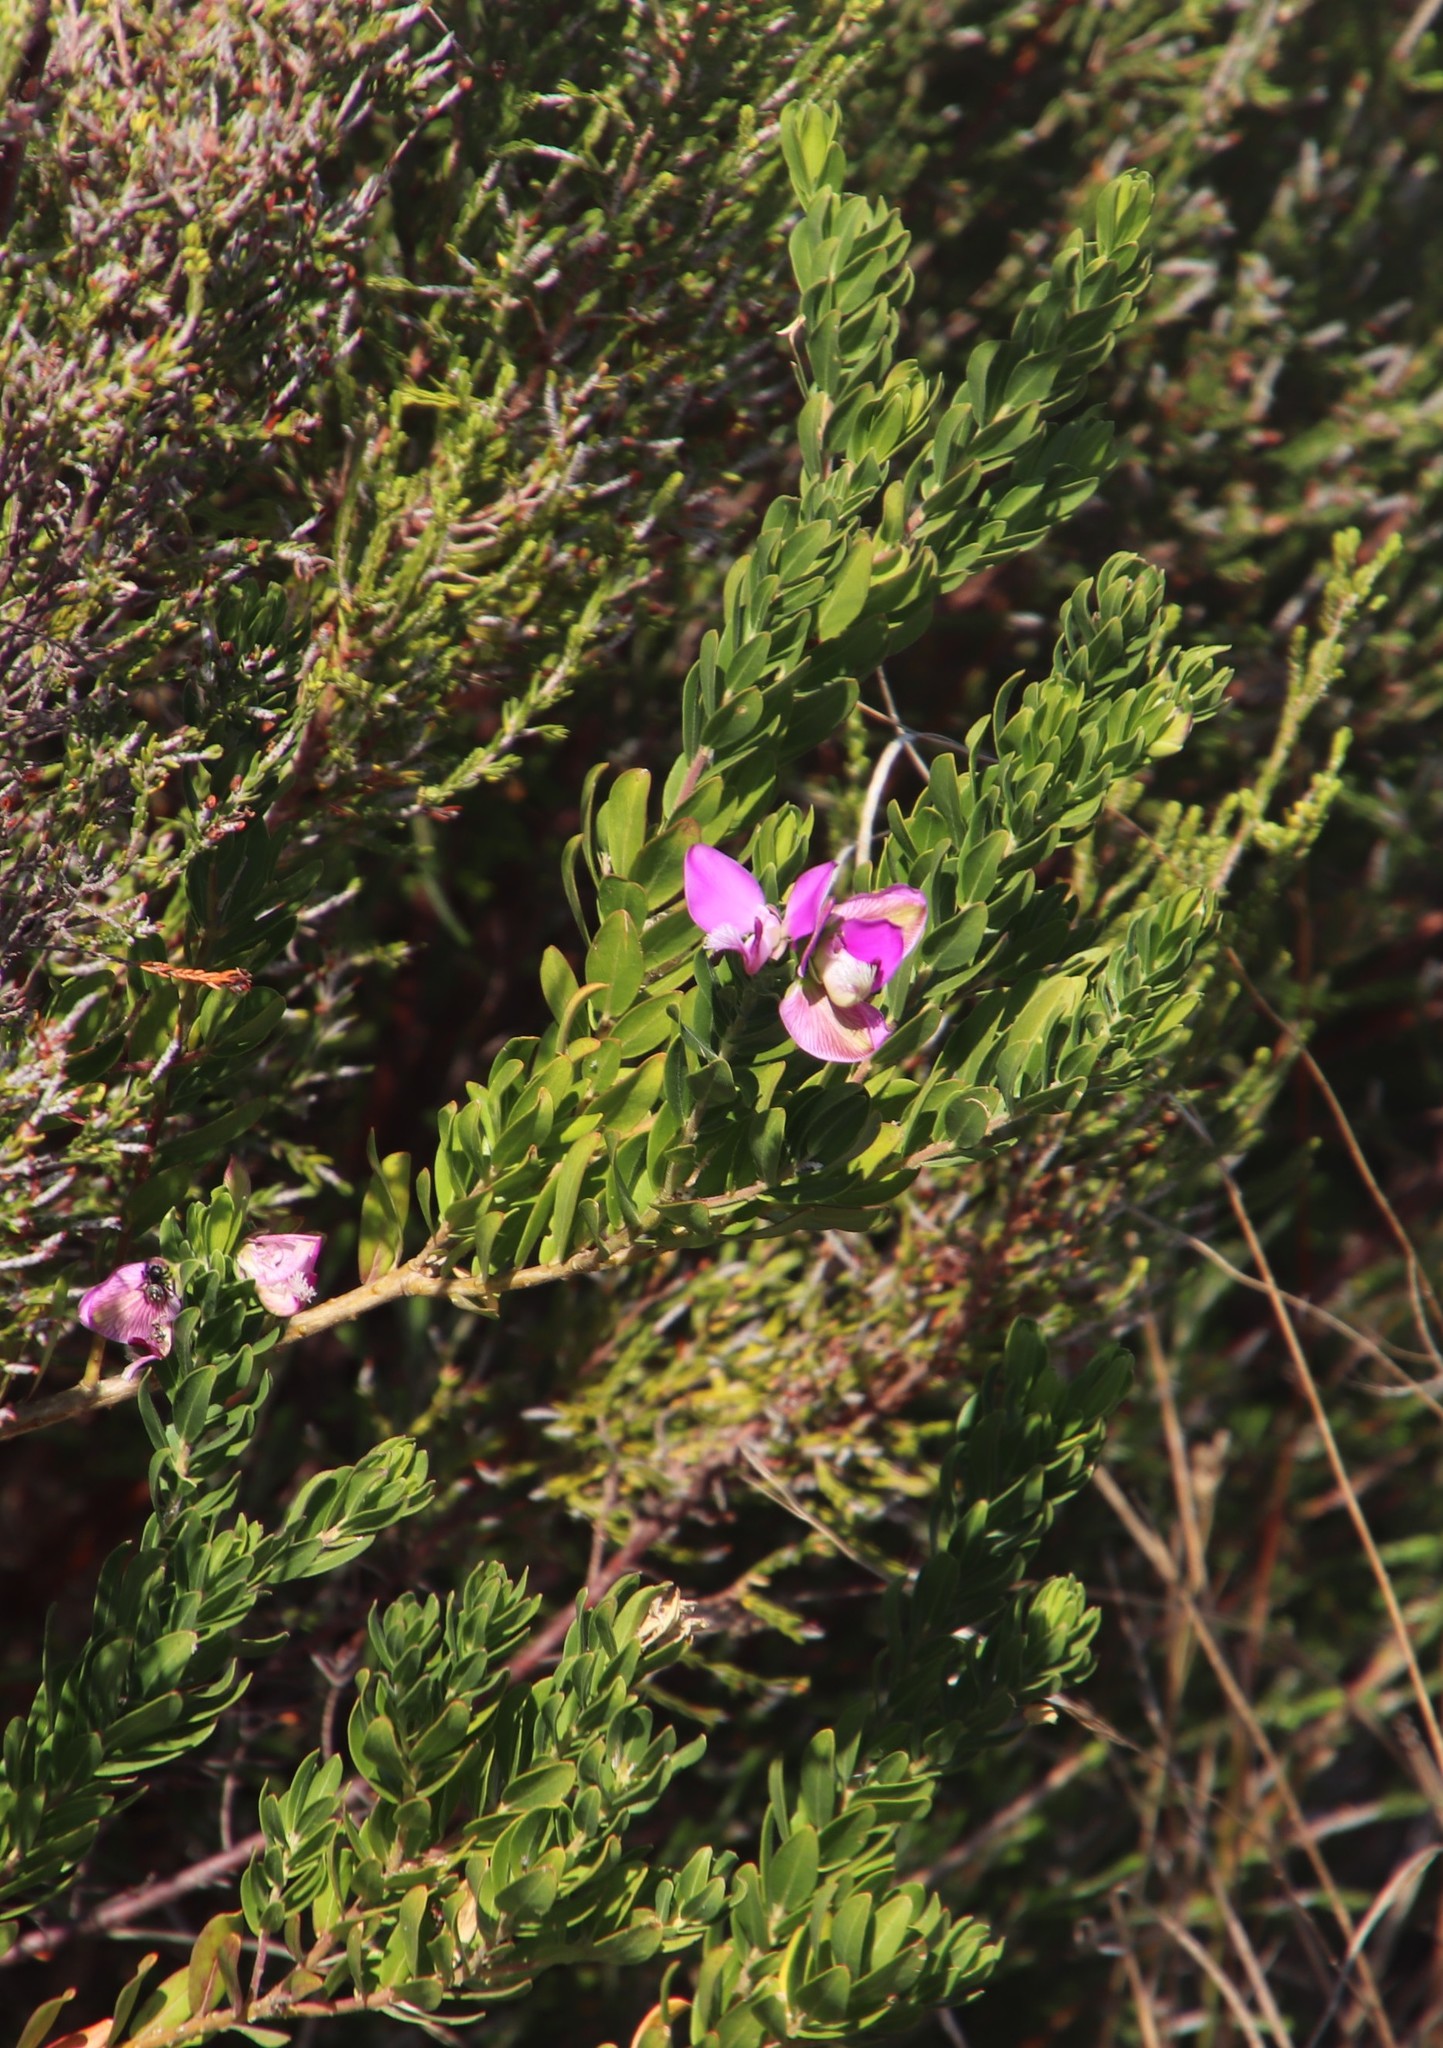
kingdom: Plantae
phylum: Tracheophyta
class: Magnoliopsida
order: Fabales
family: Polygalaceae
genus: Polygala
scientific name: Polygala myrtifolia
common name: Myrtle-leaf milkwort
